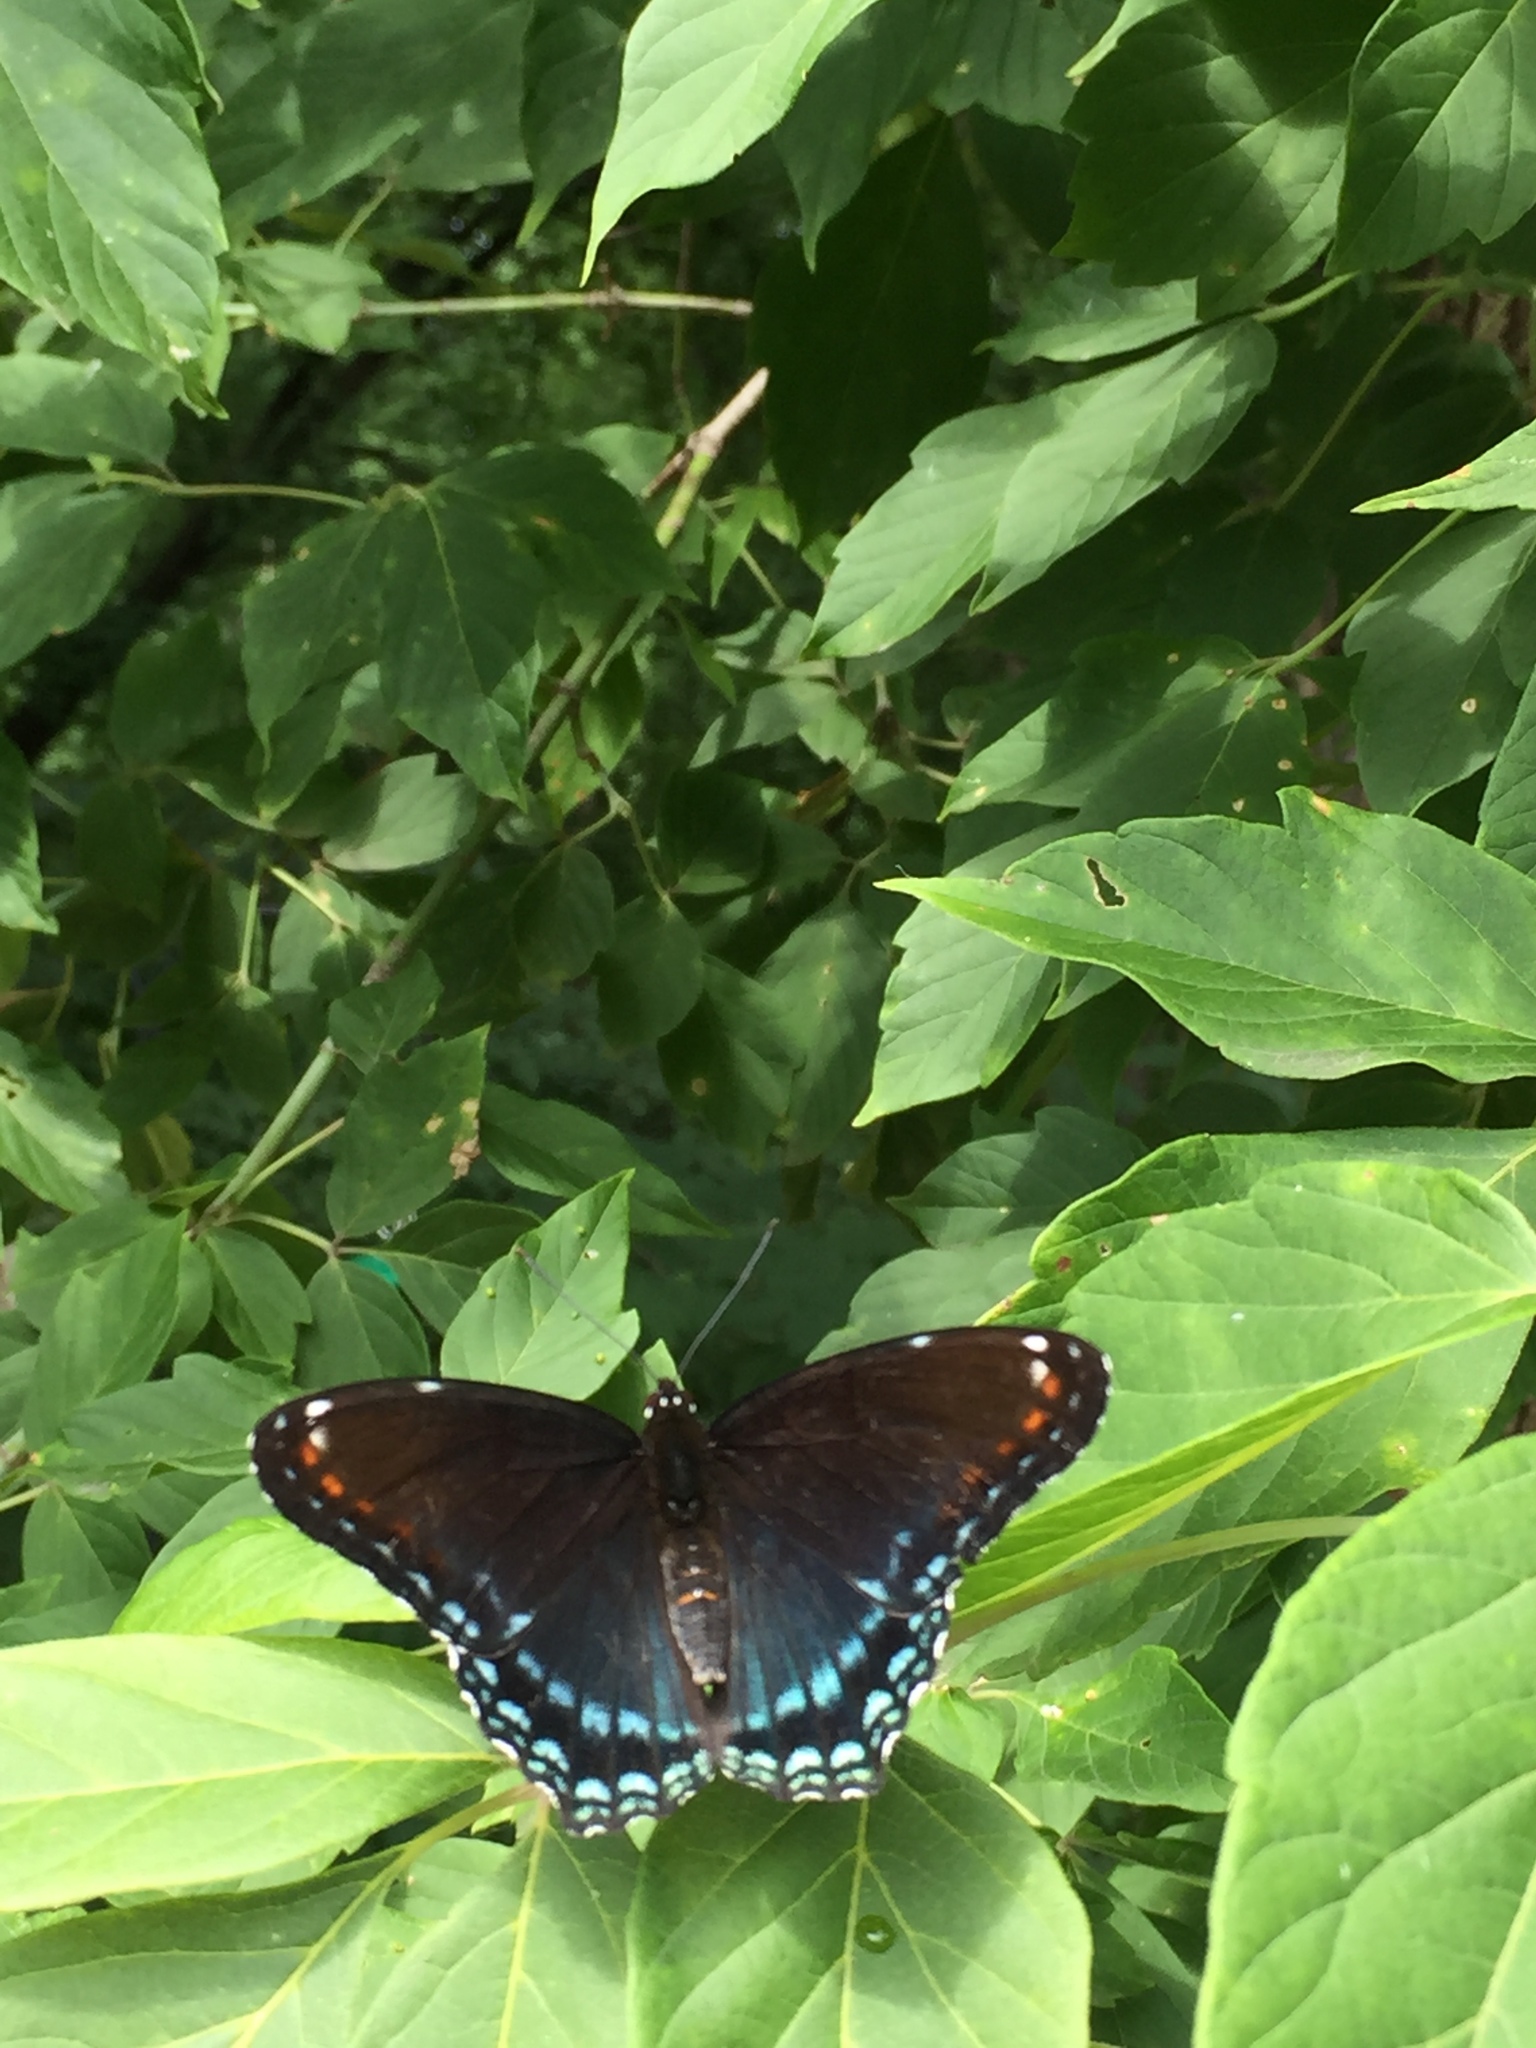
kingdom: Animalia
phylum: Arthropoda
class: Insecta
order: Lepidoptera
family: Nymphalidae
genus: Limenitis
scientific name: Limenitis astyanax
